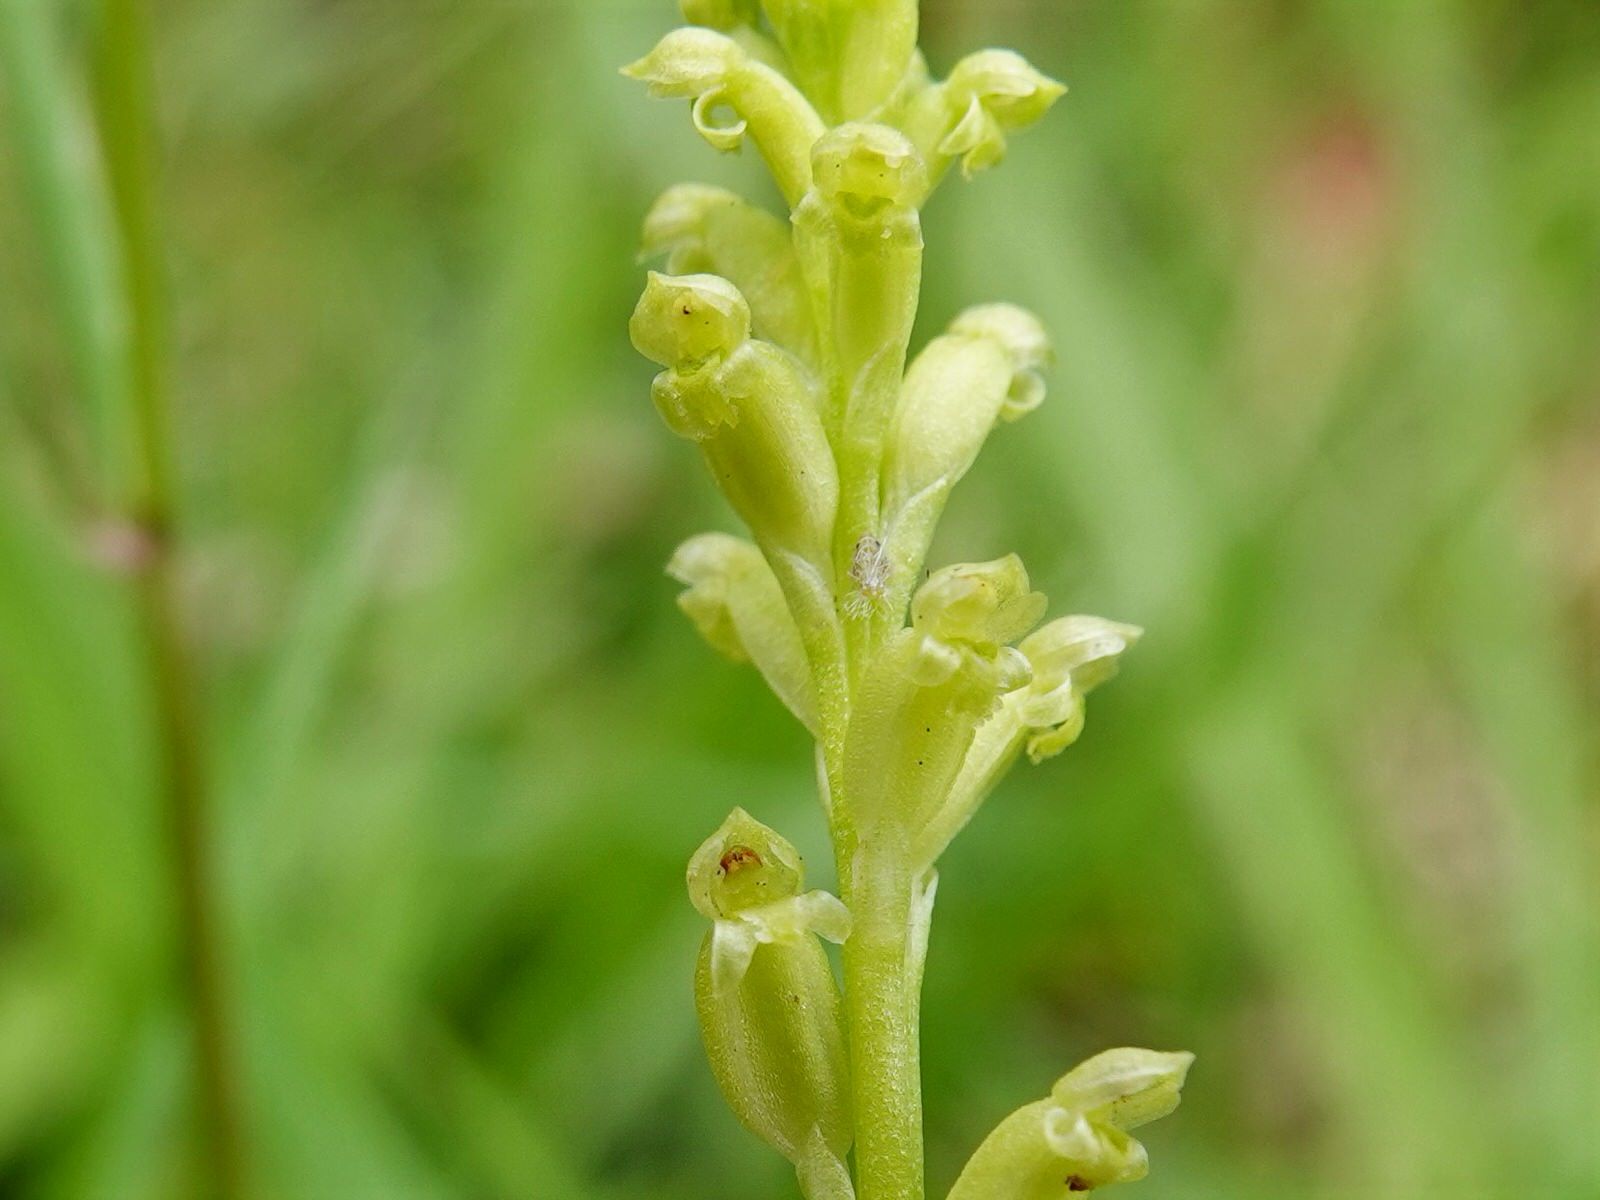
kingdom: Plantae
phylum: Tracheophyta
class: Liliopsida
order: Asparagales
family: Orchidaceae
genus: Microtis
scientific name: Microtis unifolia
